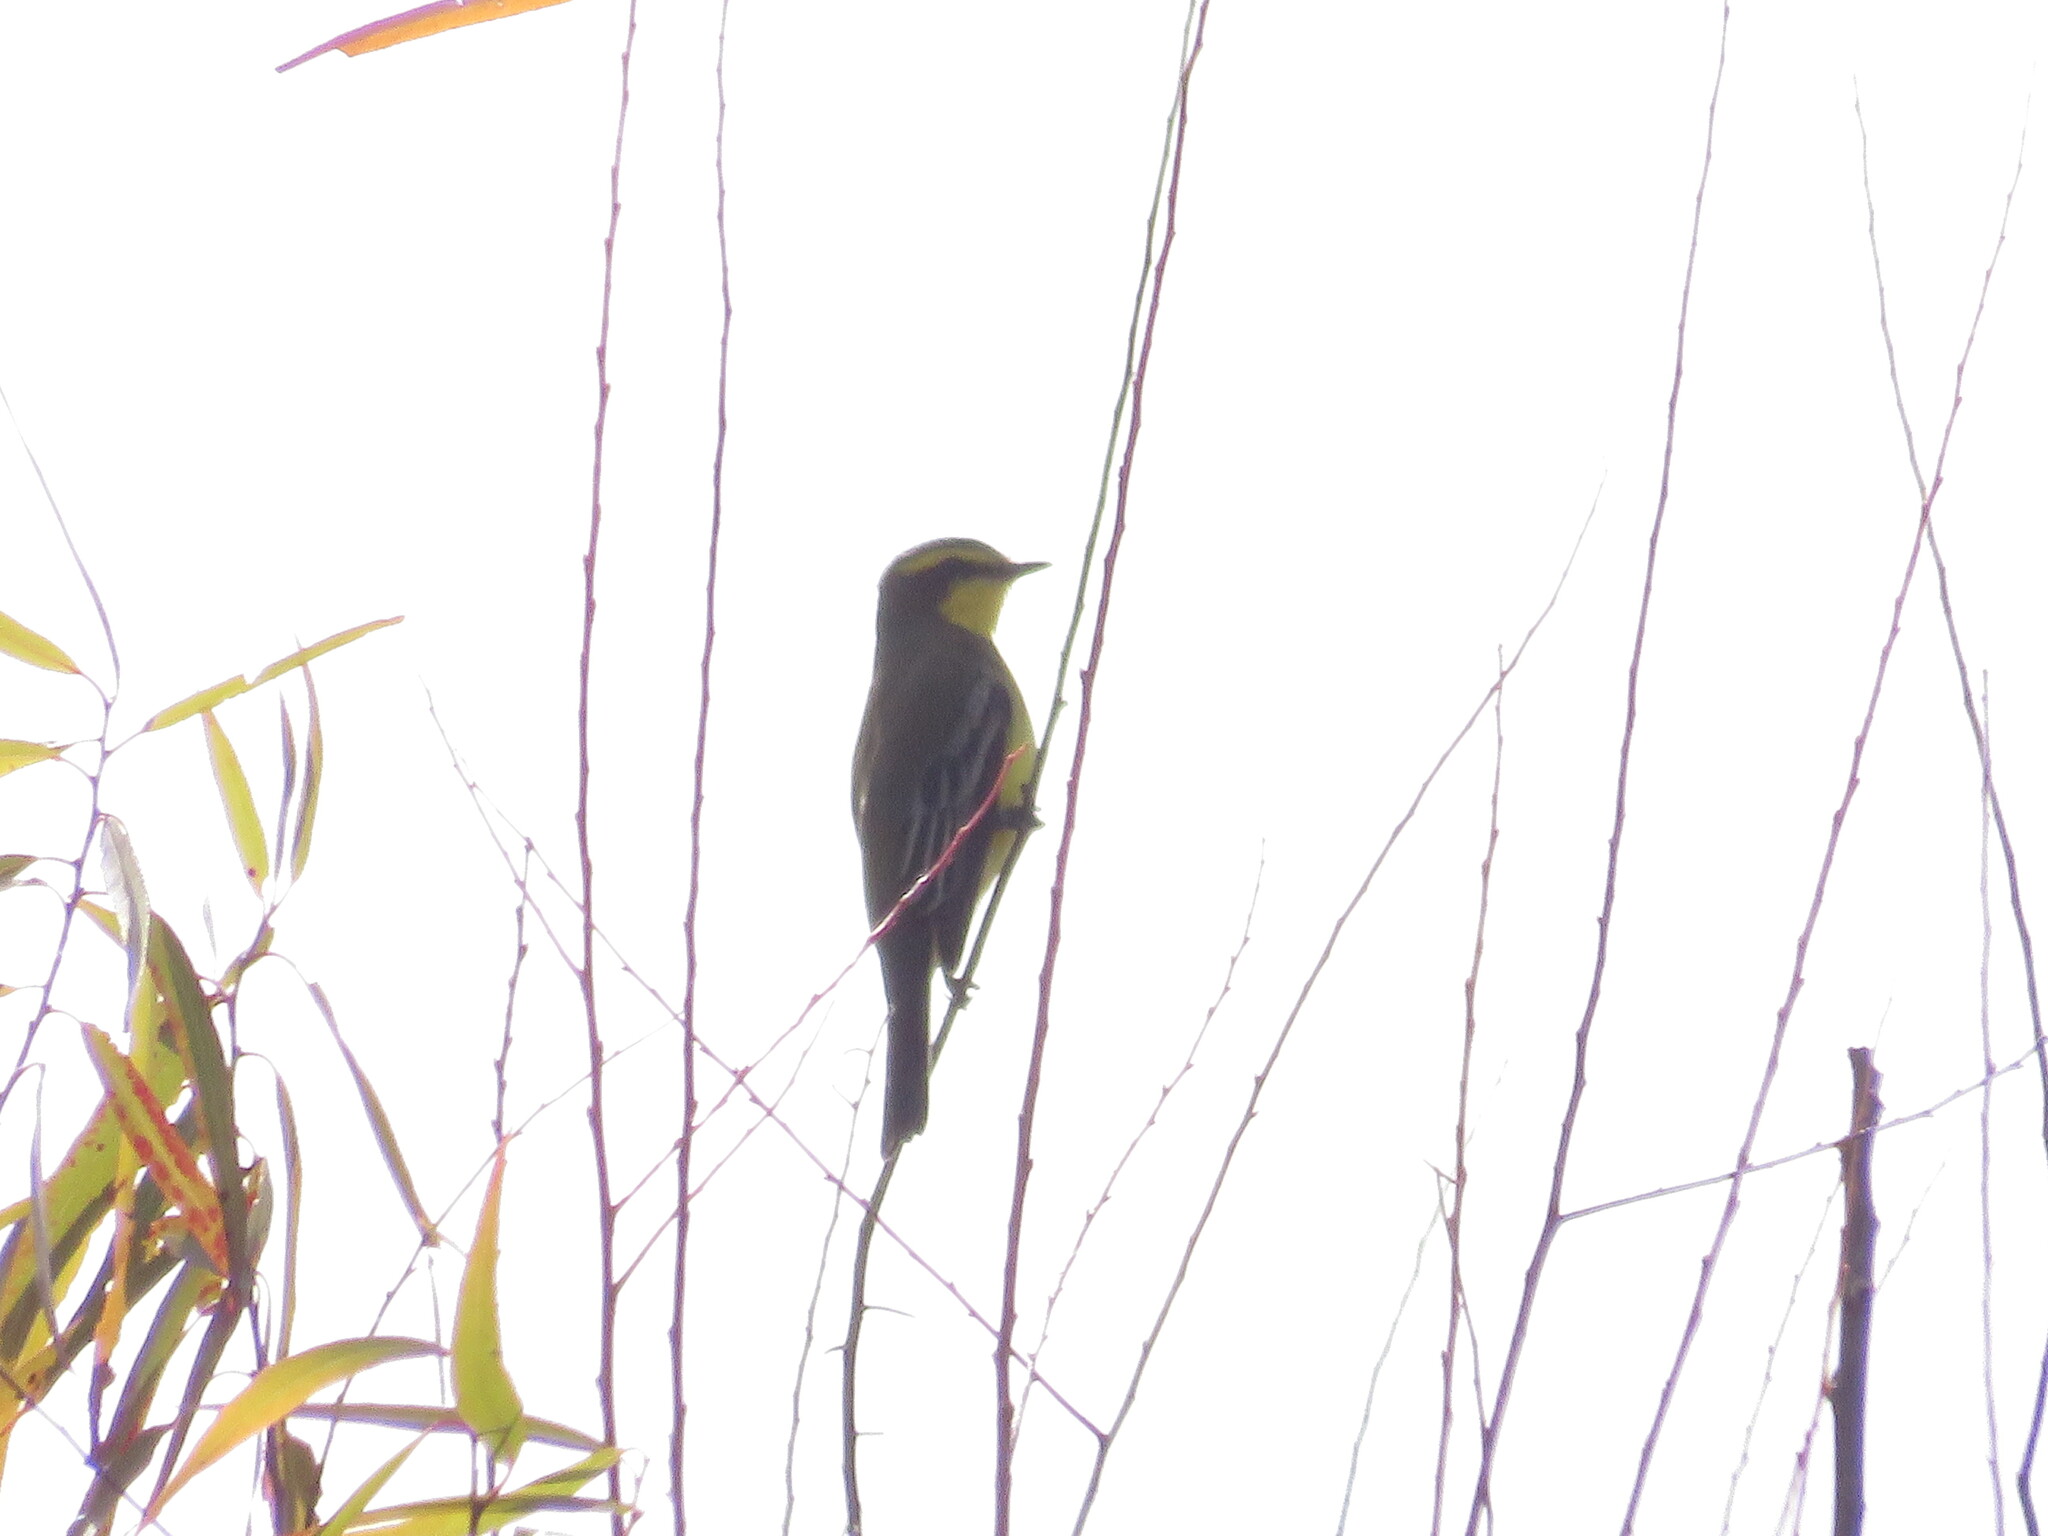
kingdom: Animalia
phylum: Chordata
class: Aves
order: Passeriformes
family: Tyrannidae
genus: Satrapa
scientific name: Satrapa icterophrys
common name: Yellow-browed tyrant
